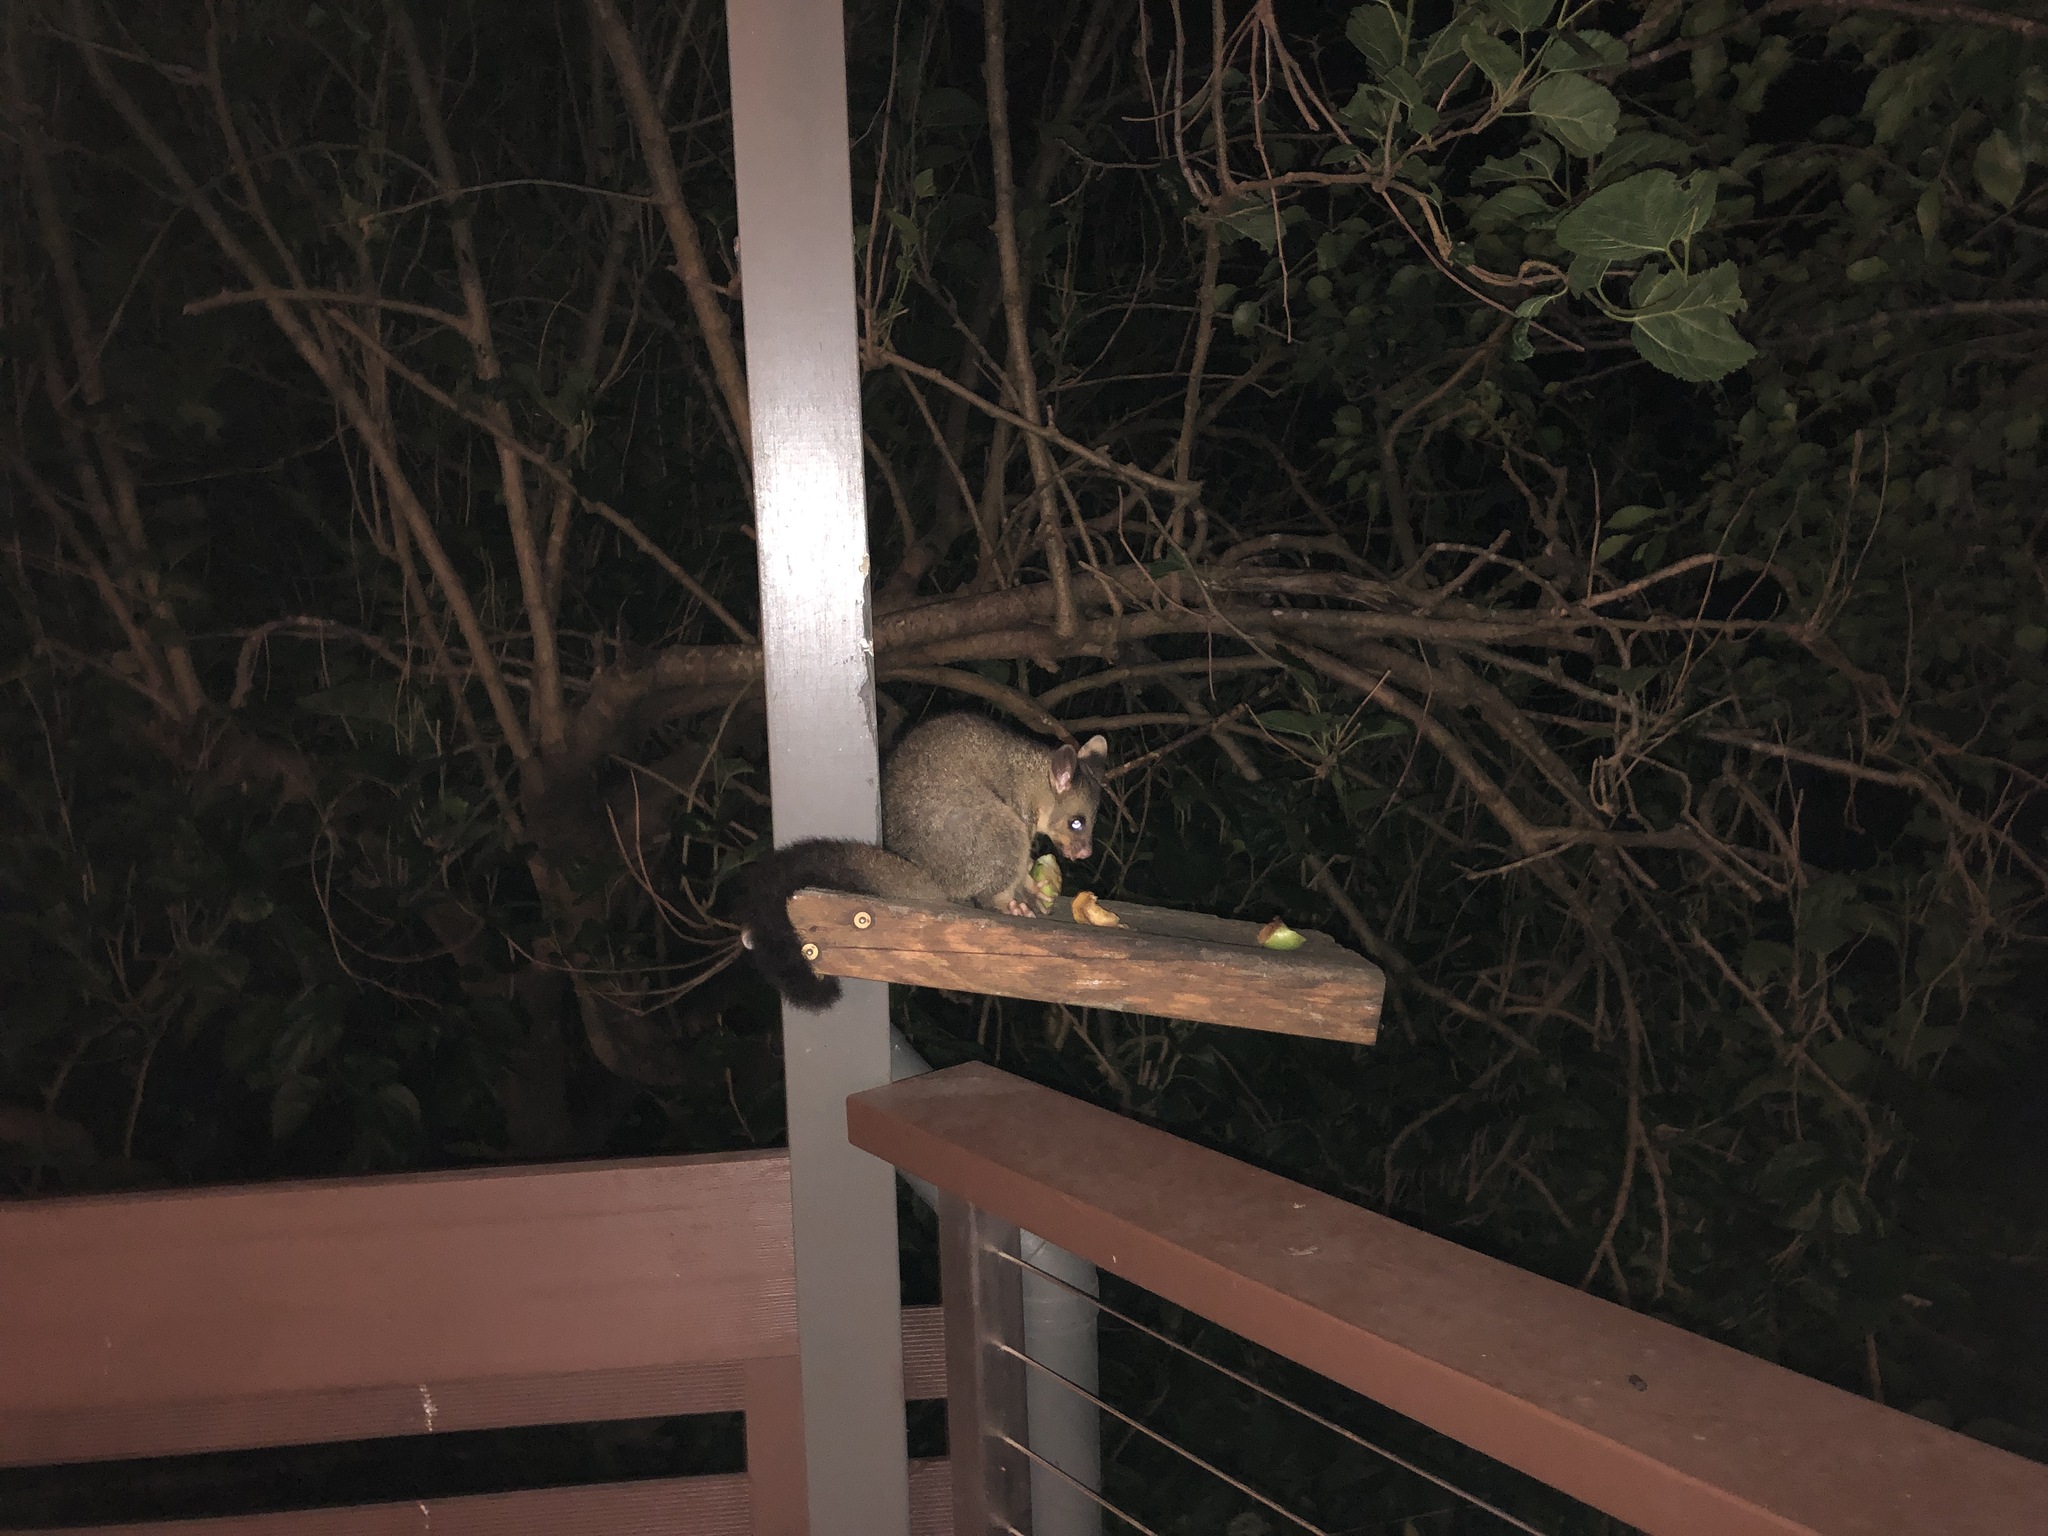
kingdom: Animalia
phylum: Chordata
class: Mammalia
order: Diprotodontia
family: Phalangeridae
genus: Trichosurus
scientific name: Trichosurus vulpecula
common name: Common brushtail
